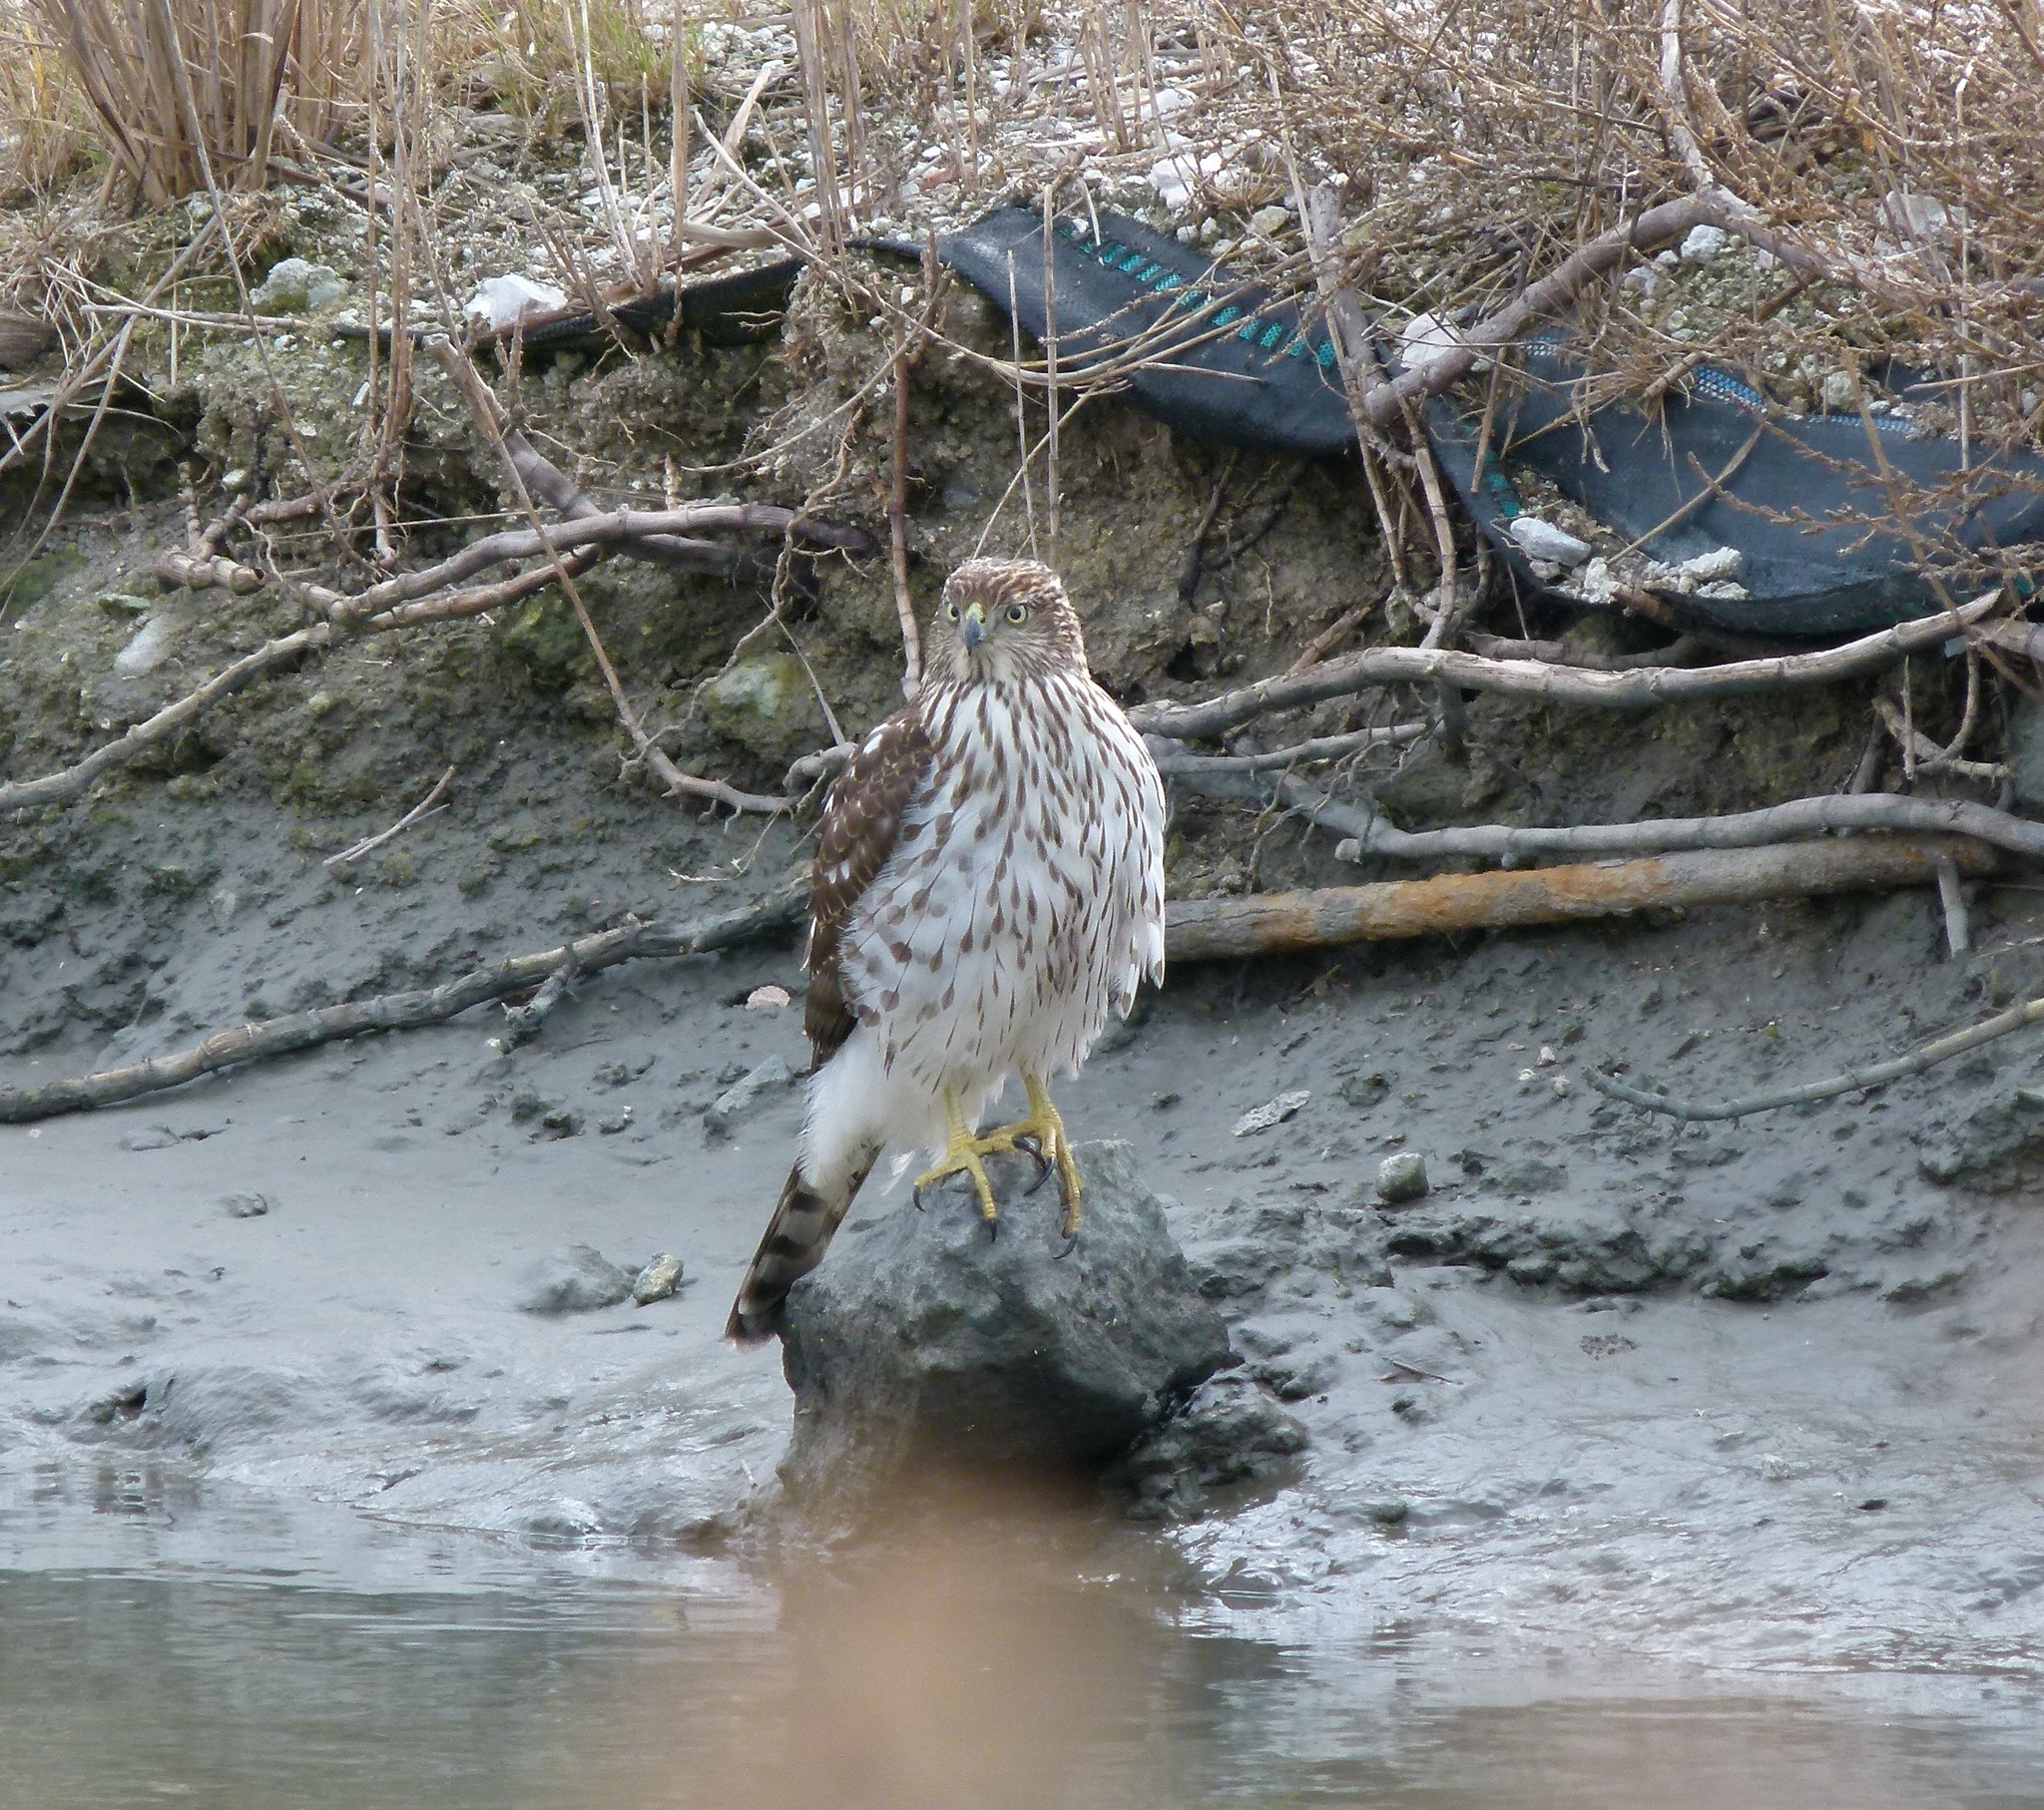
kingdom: Animalia
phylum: Chordata
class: Aves
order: Accipitriformes
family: Accipitridae
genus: Accipiter
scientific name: Accipiter cooperii
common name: Cooper's hawk
